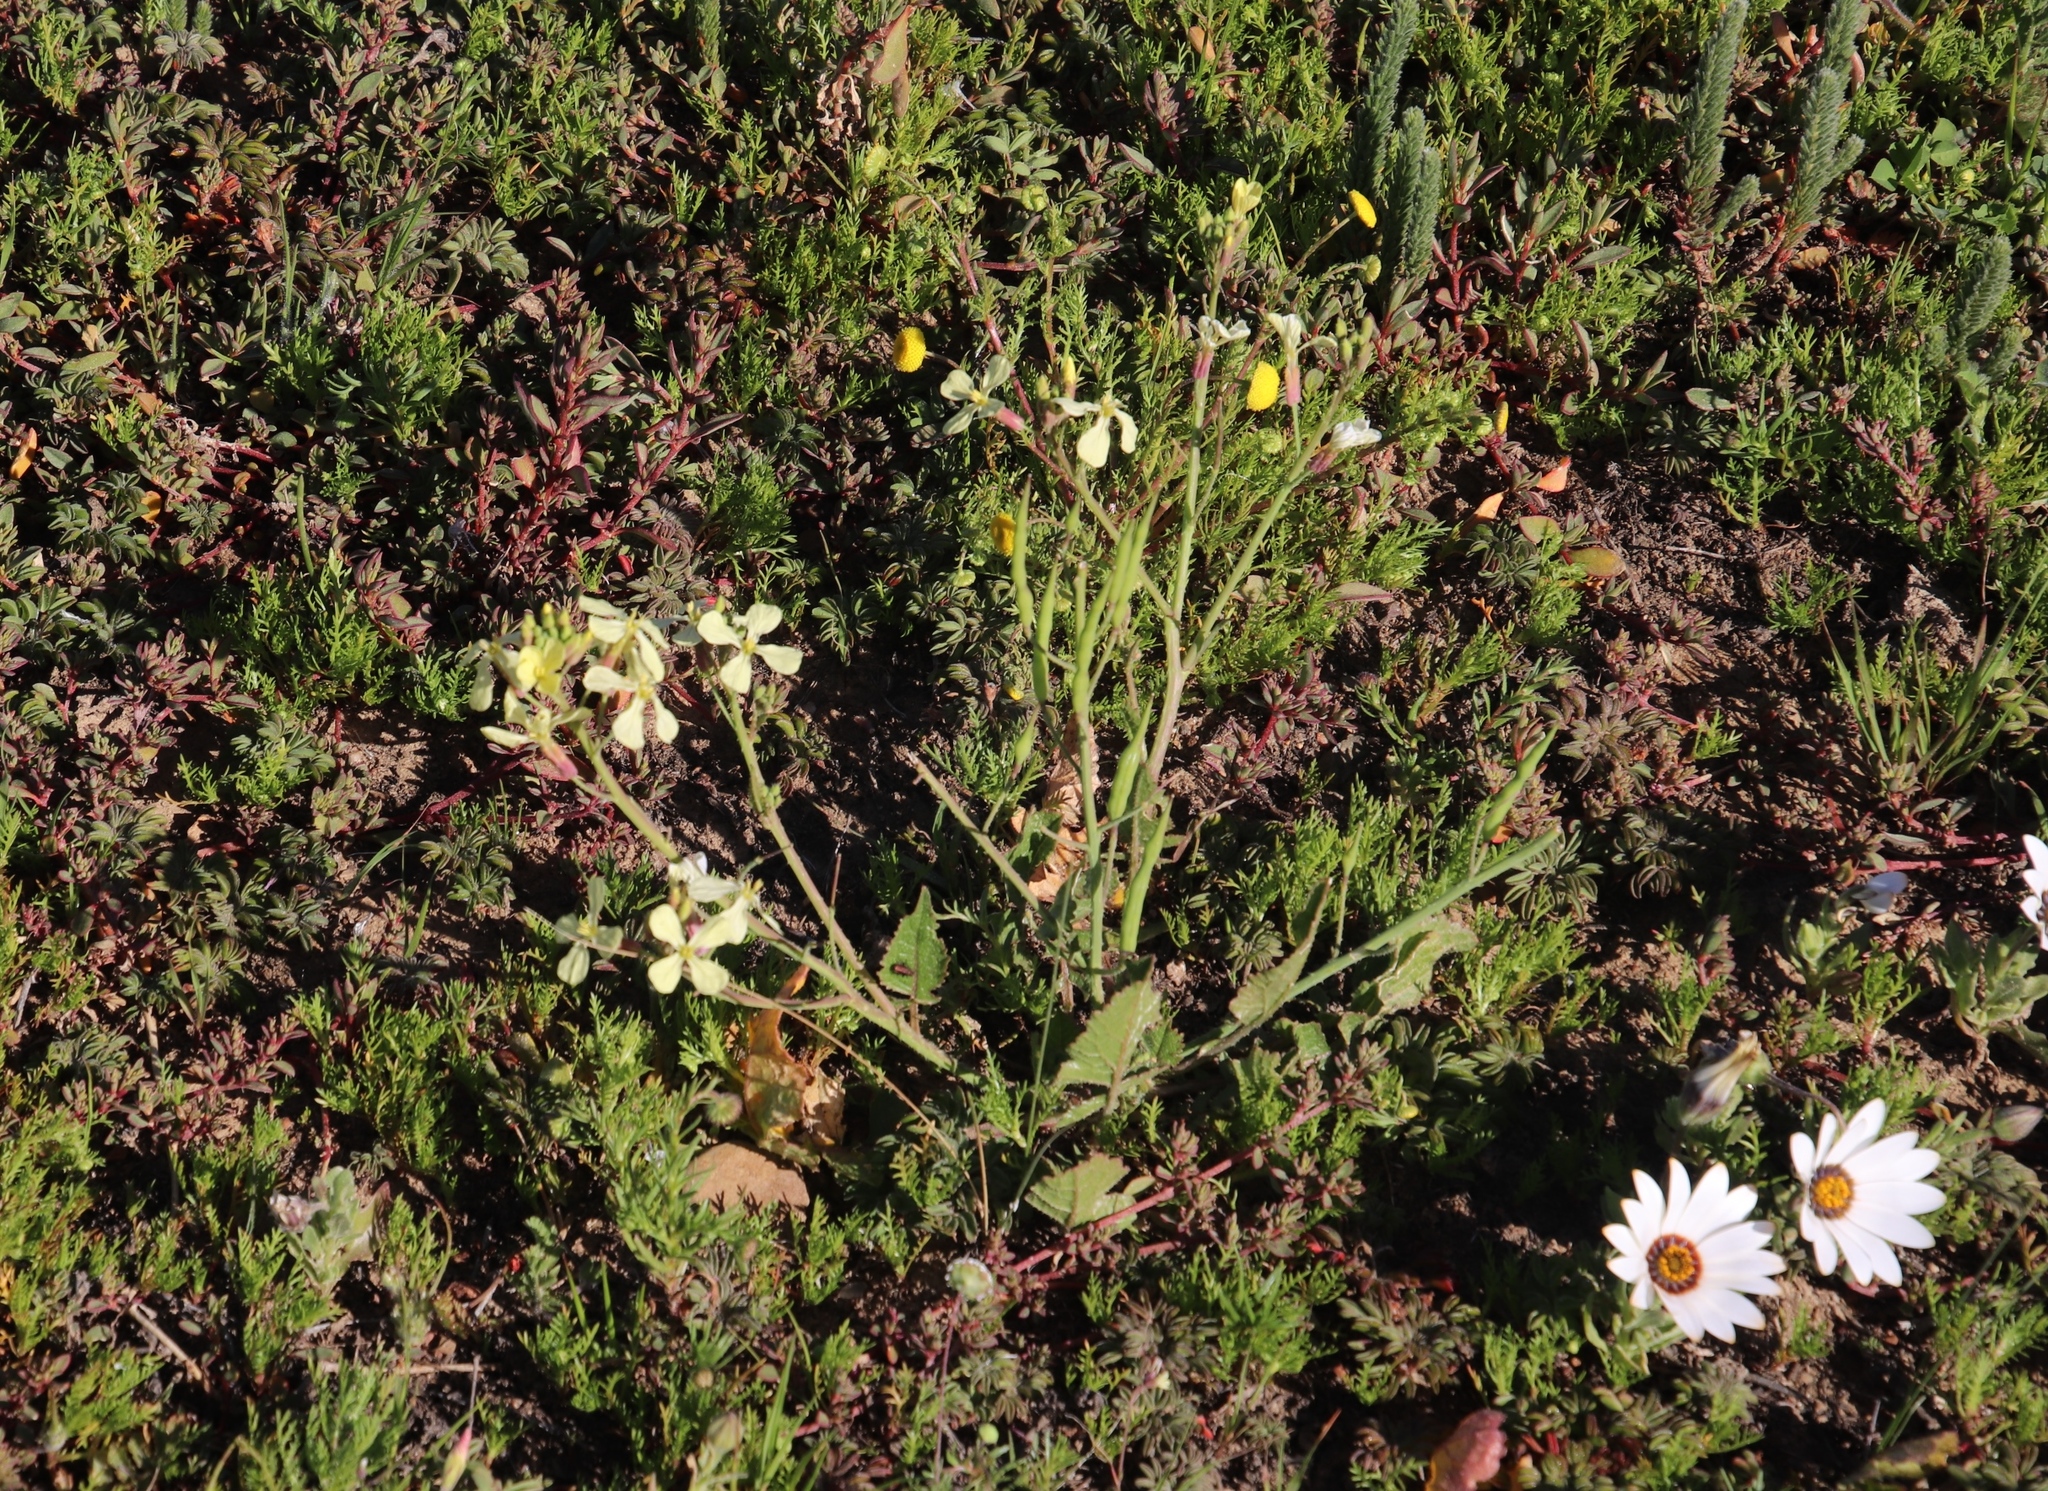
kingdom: Plantae
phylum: Tracheophyta
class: Magnoliopsida
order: Brassicales
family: Brassicaceae
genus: Raphanus
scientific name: Raphanus raphanistrum
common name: Wild radish
